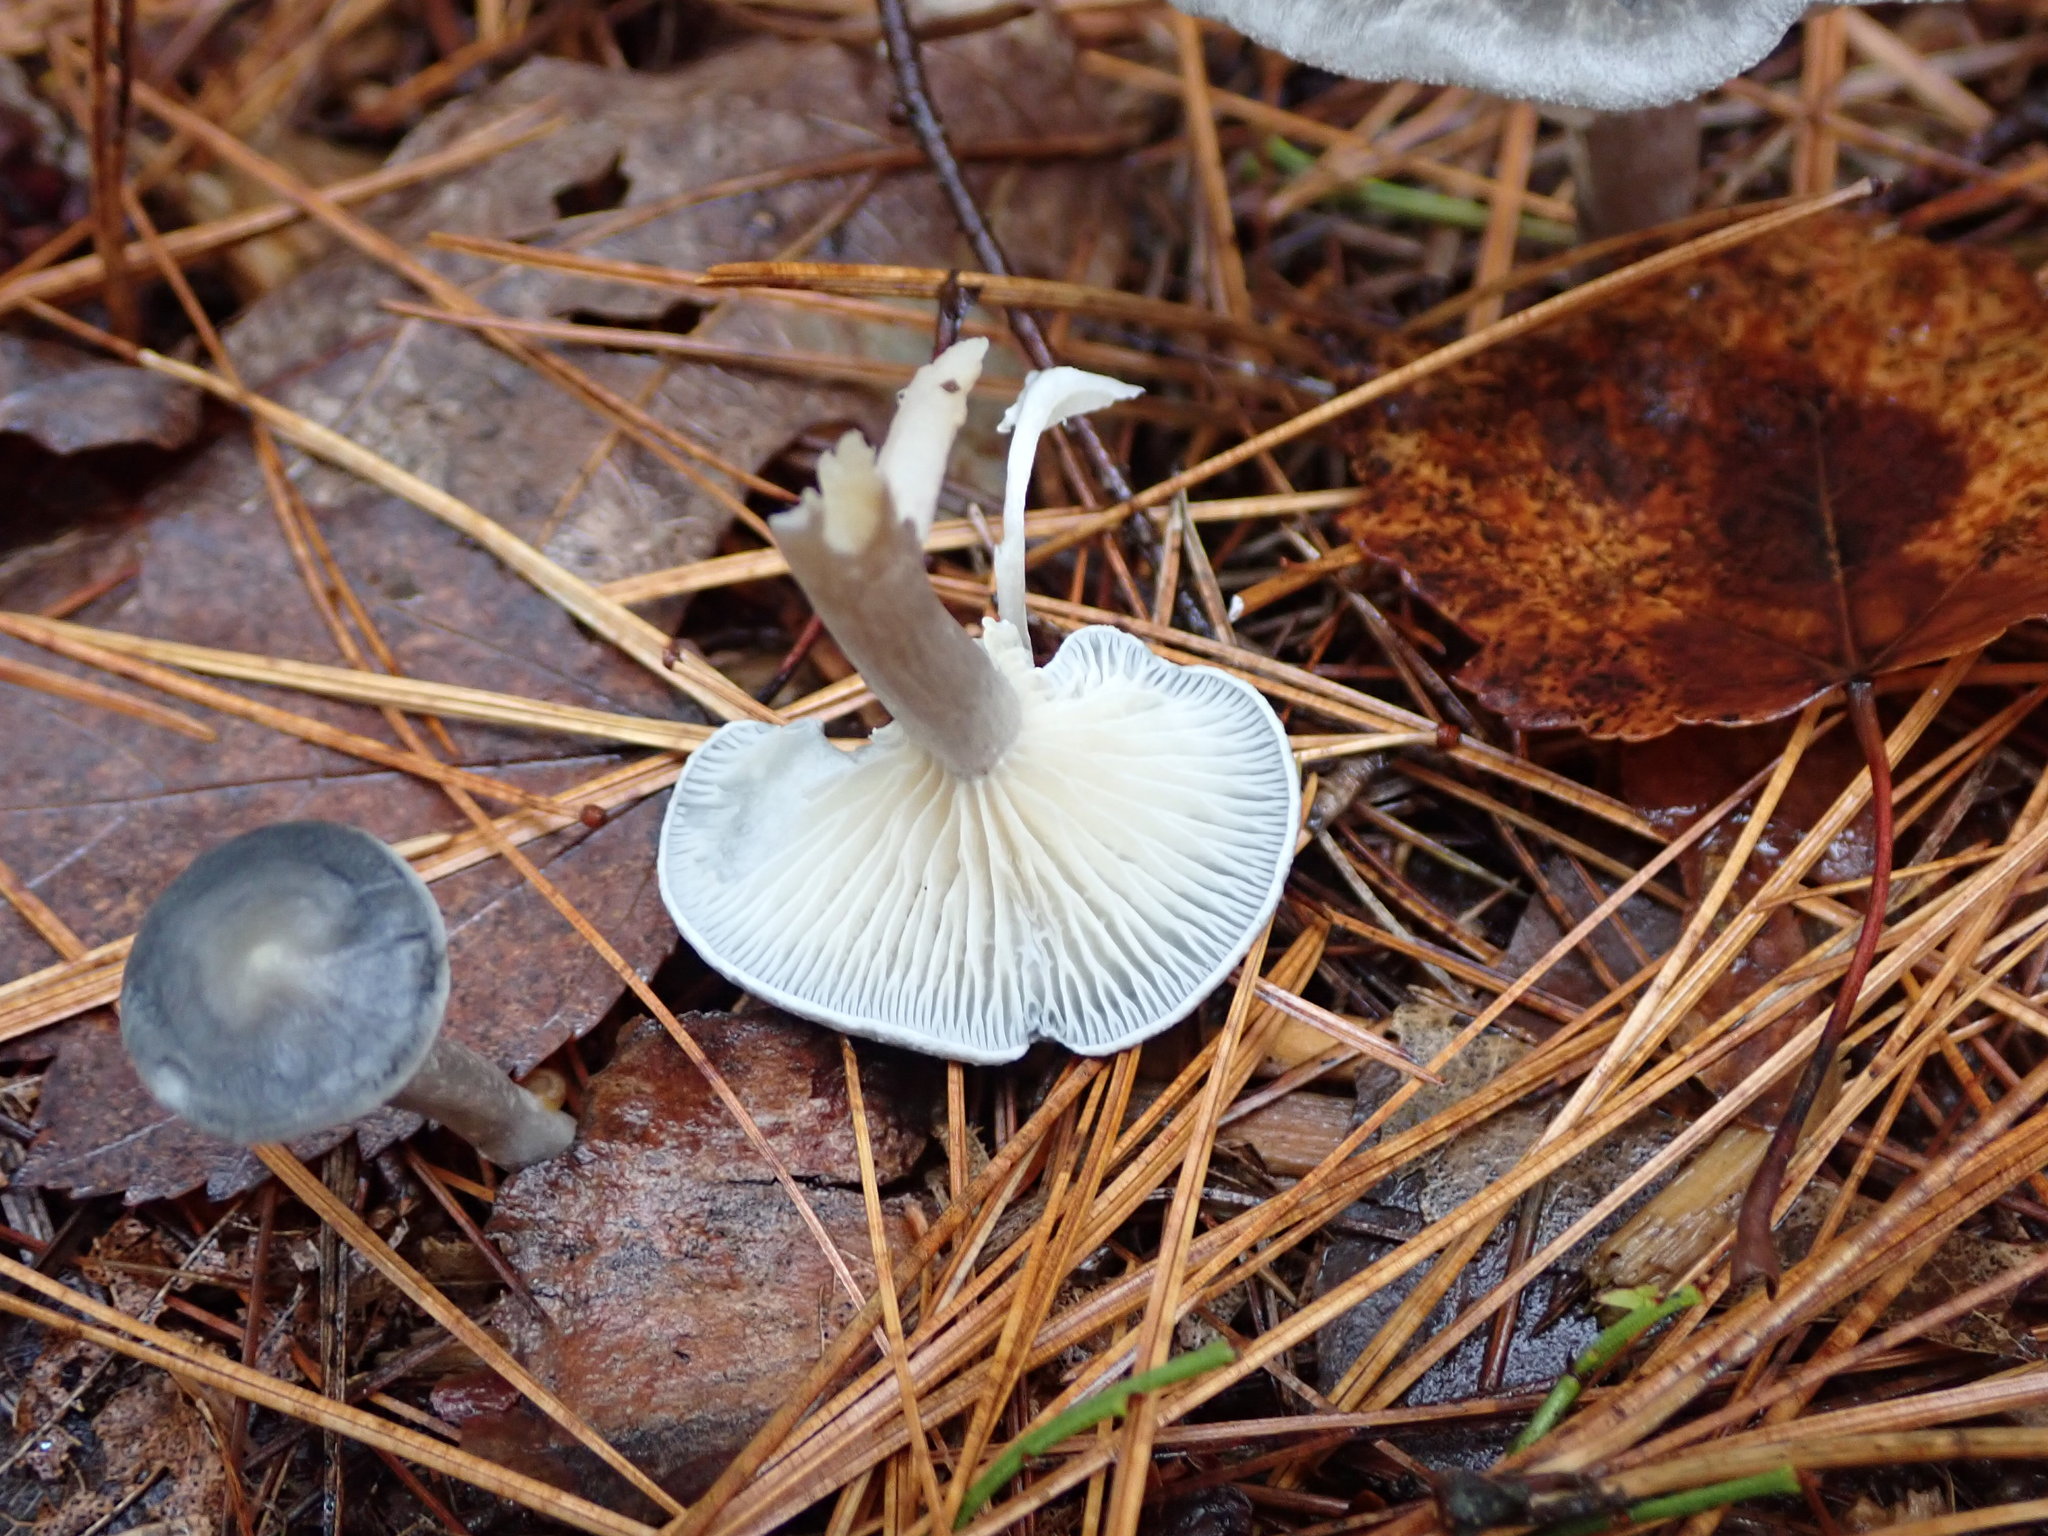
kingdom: Fungi
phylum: Basidiomycota
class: Agaricomycetes
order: Agaricales
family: Hygrophoraceae
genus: Cantharellula
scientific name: Cantharellula umbonata
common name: The humpback
